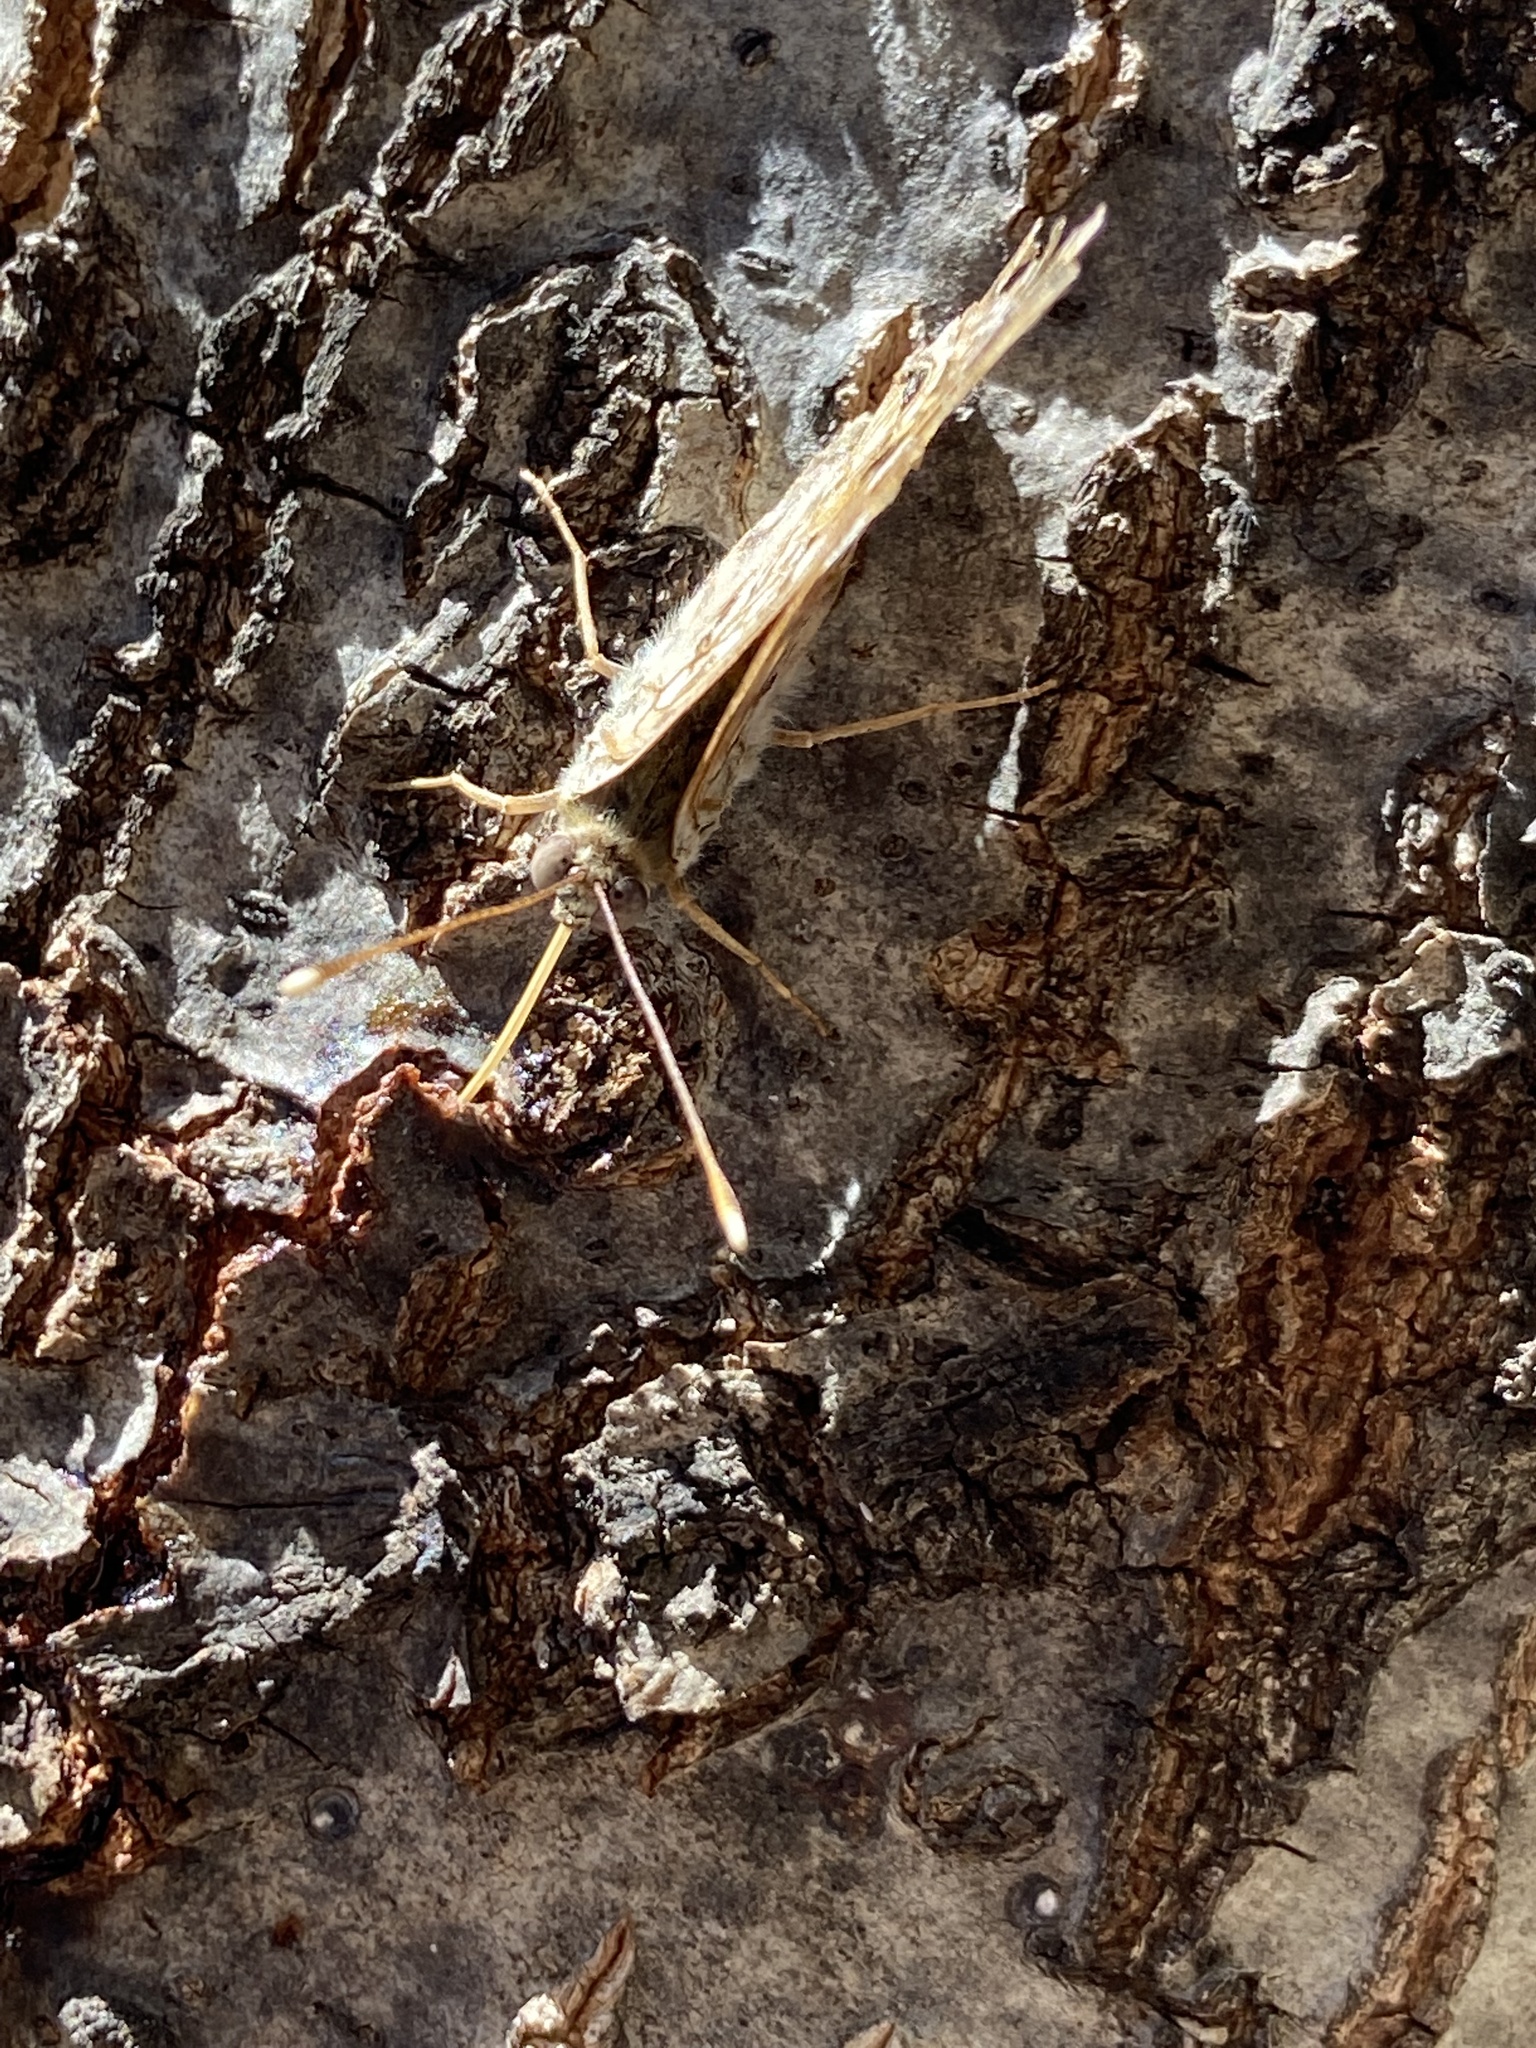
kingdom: Animalia
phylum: Arthropoda
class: Insecta
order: Lepidoptera
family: Nymphalidae
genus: Asterocampa
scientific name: Asterocampa celtis
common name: Hackberry emperor
